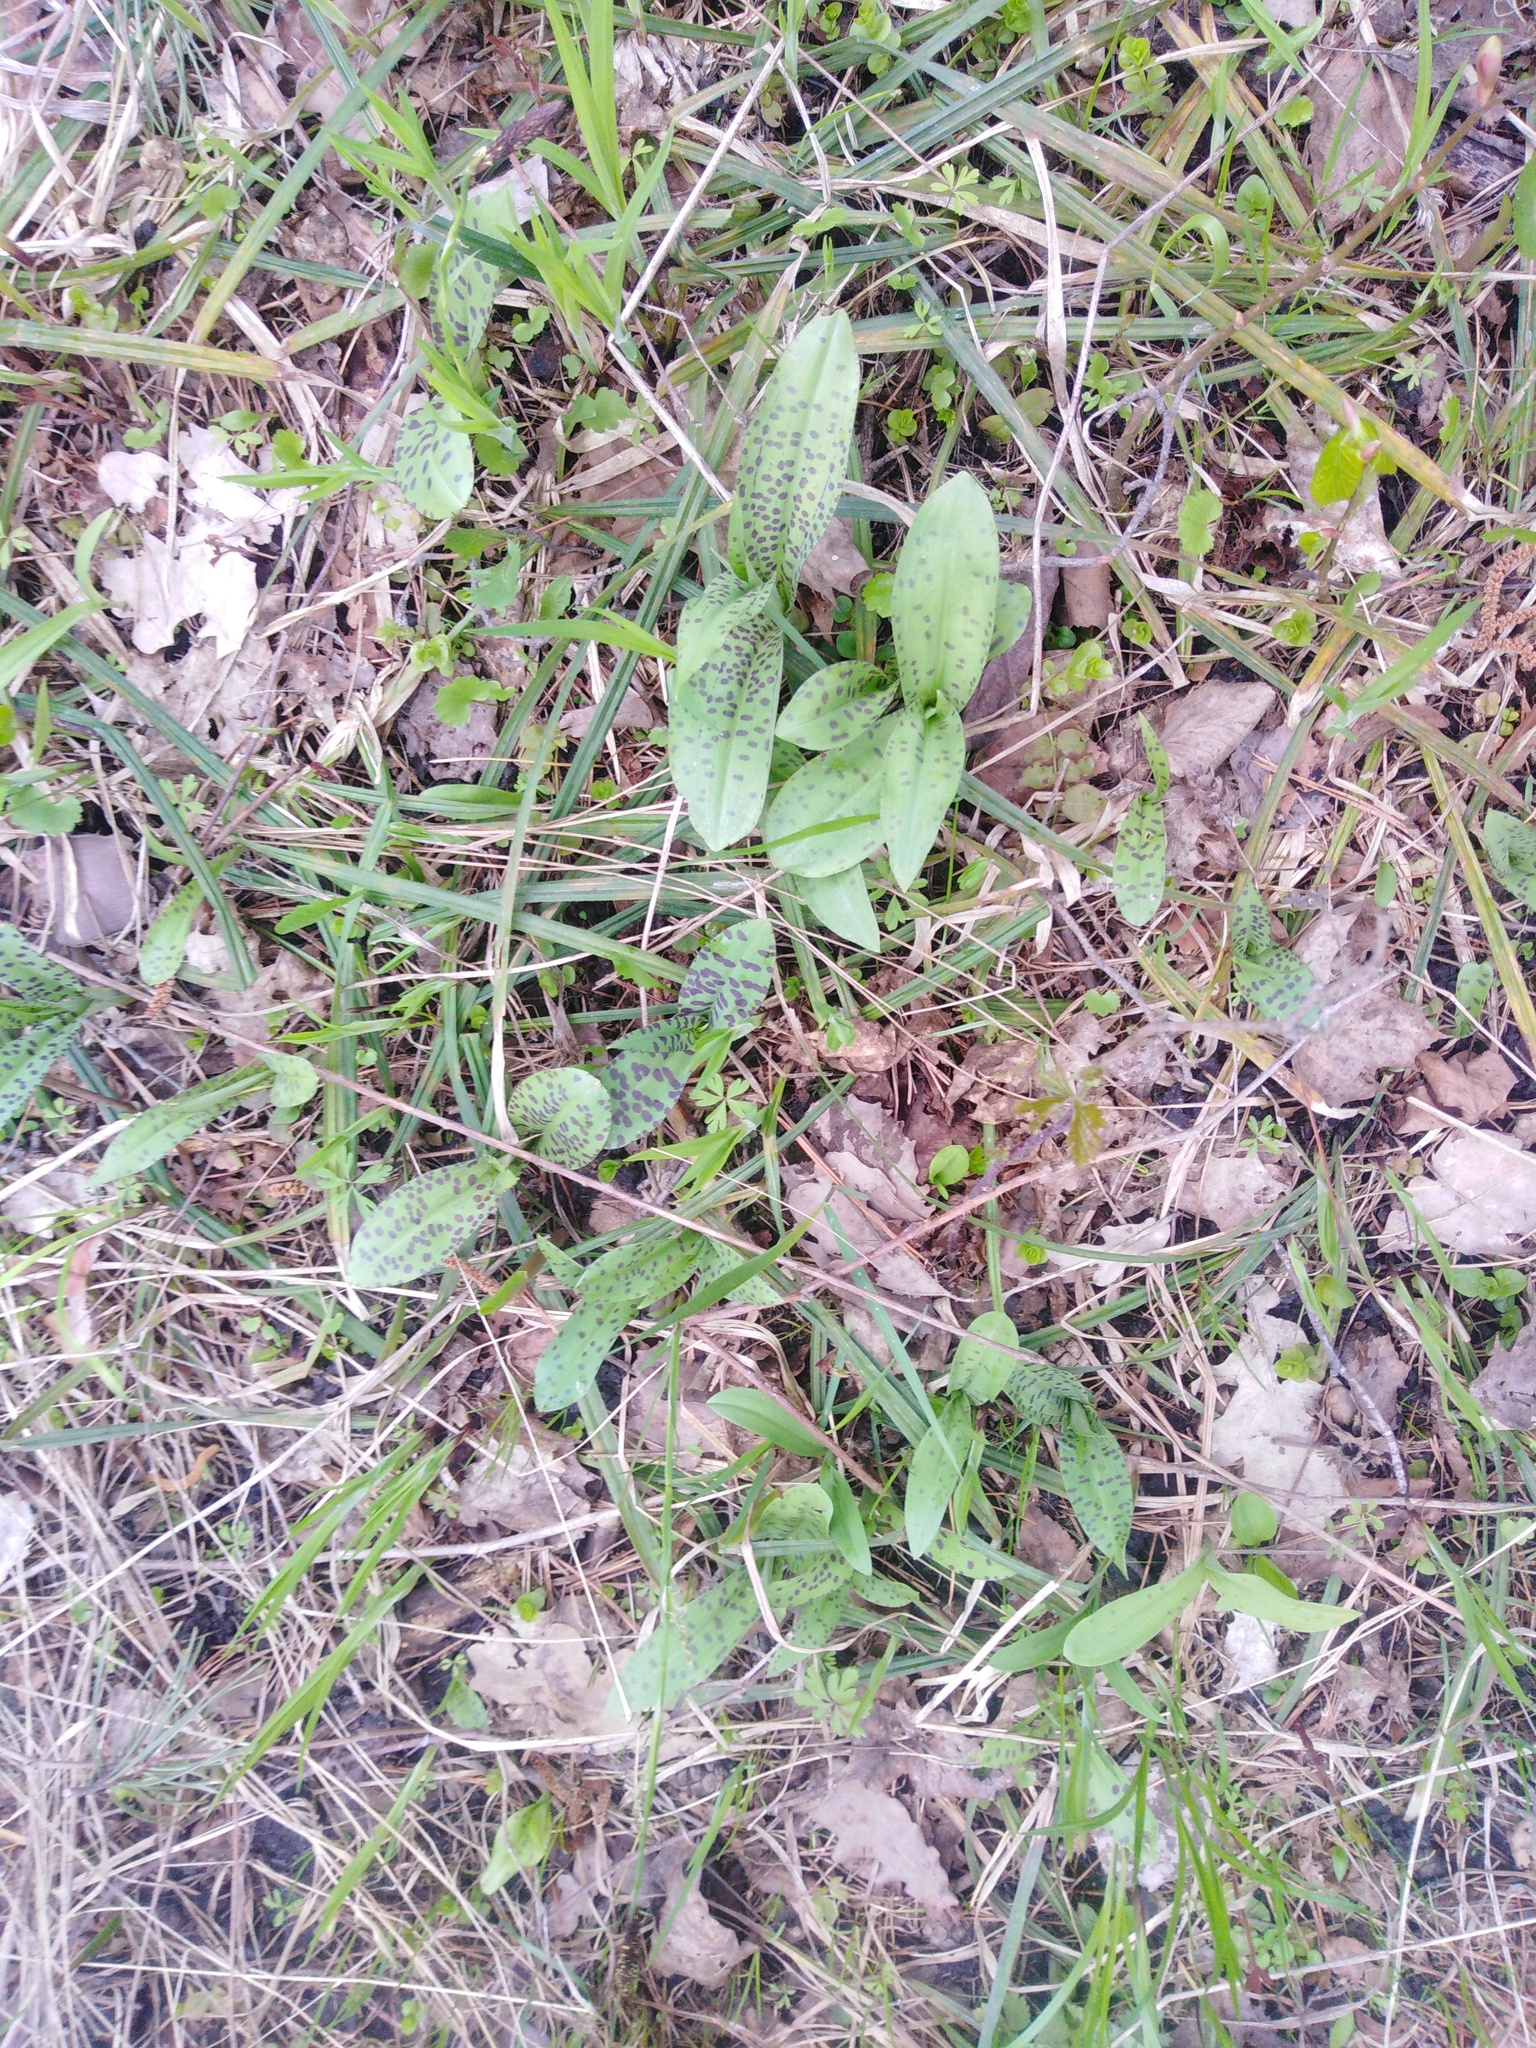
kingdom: Plantae
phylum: Tracheophyta
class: Liliopsida
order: Asparagales
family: Orchidaceae
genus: Dactylorhiza
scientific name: Dactylorhiza maculata
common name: Heath spotted-orchid
